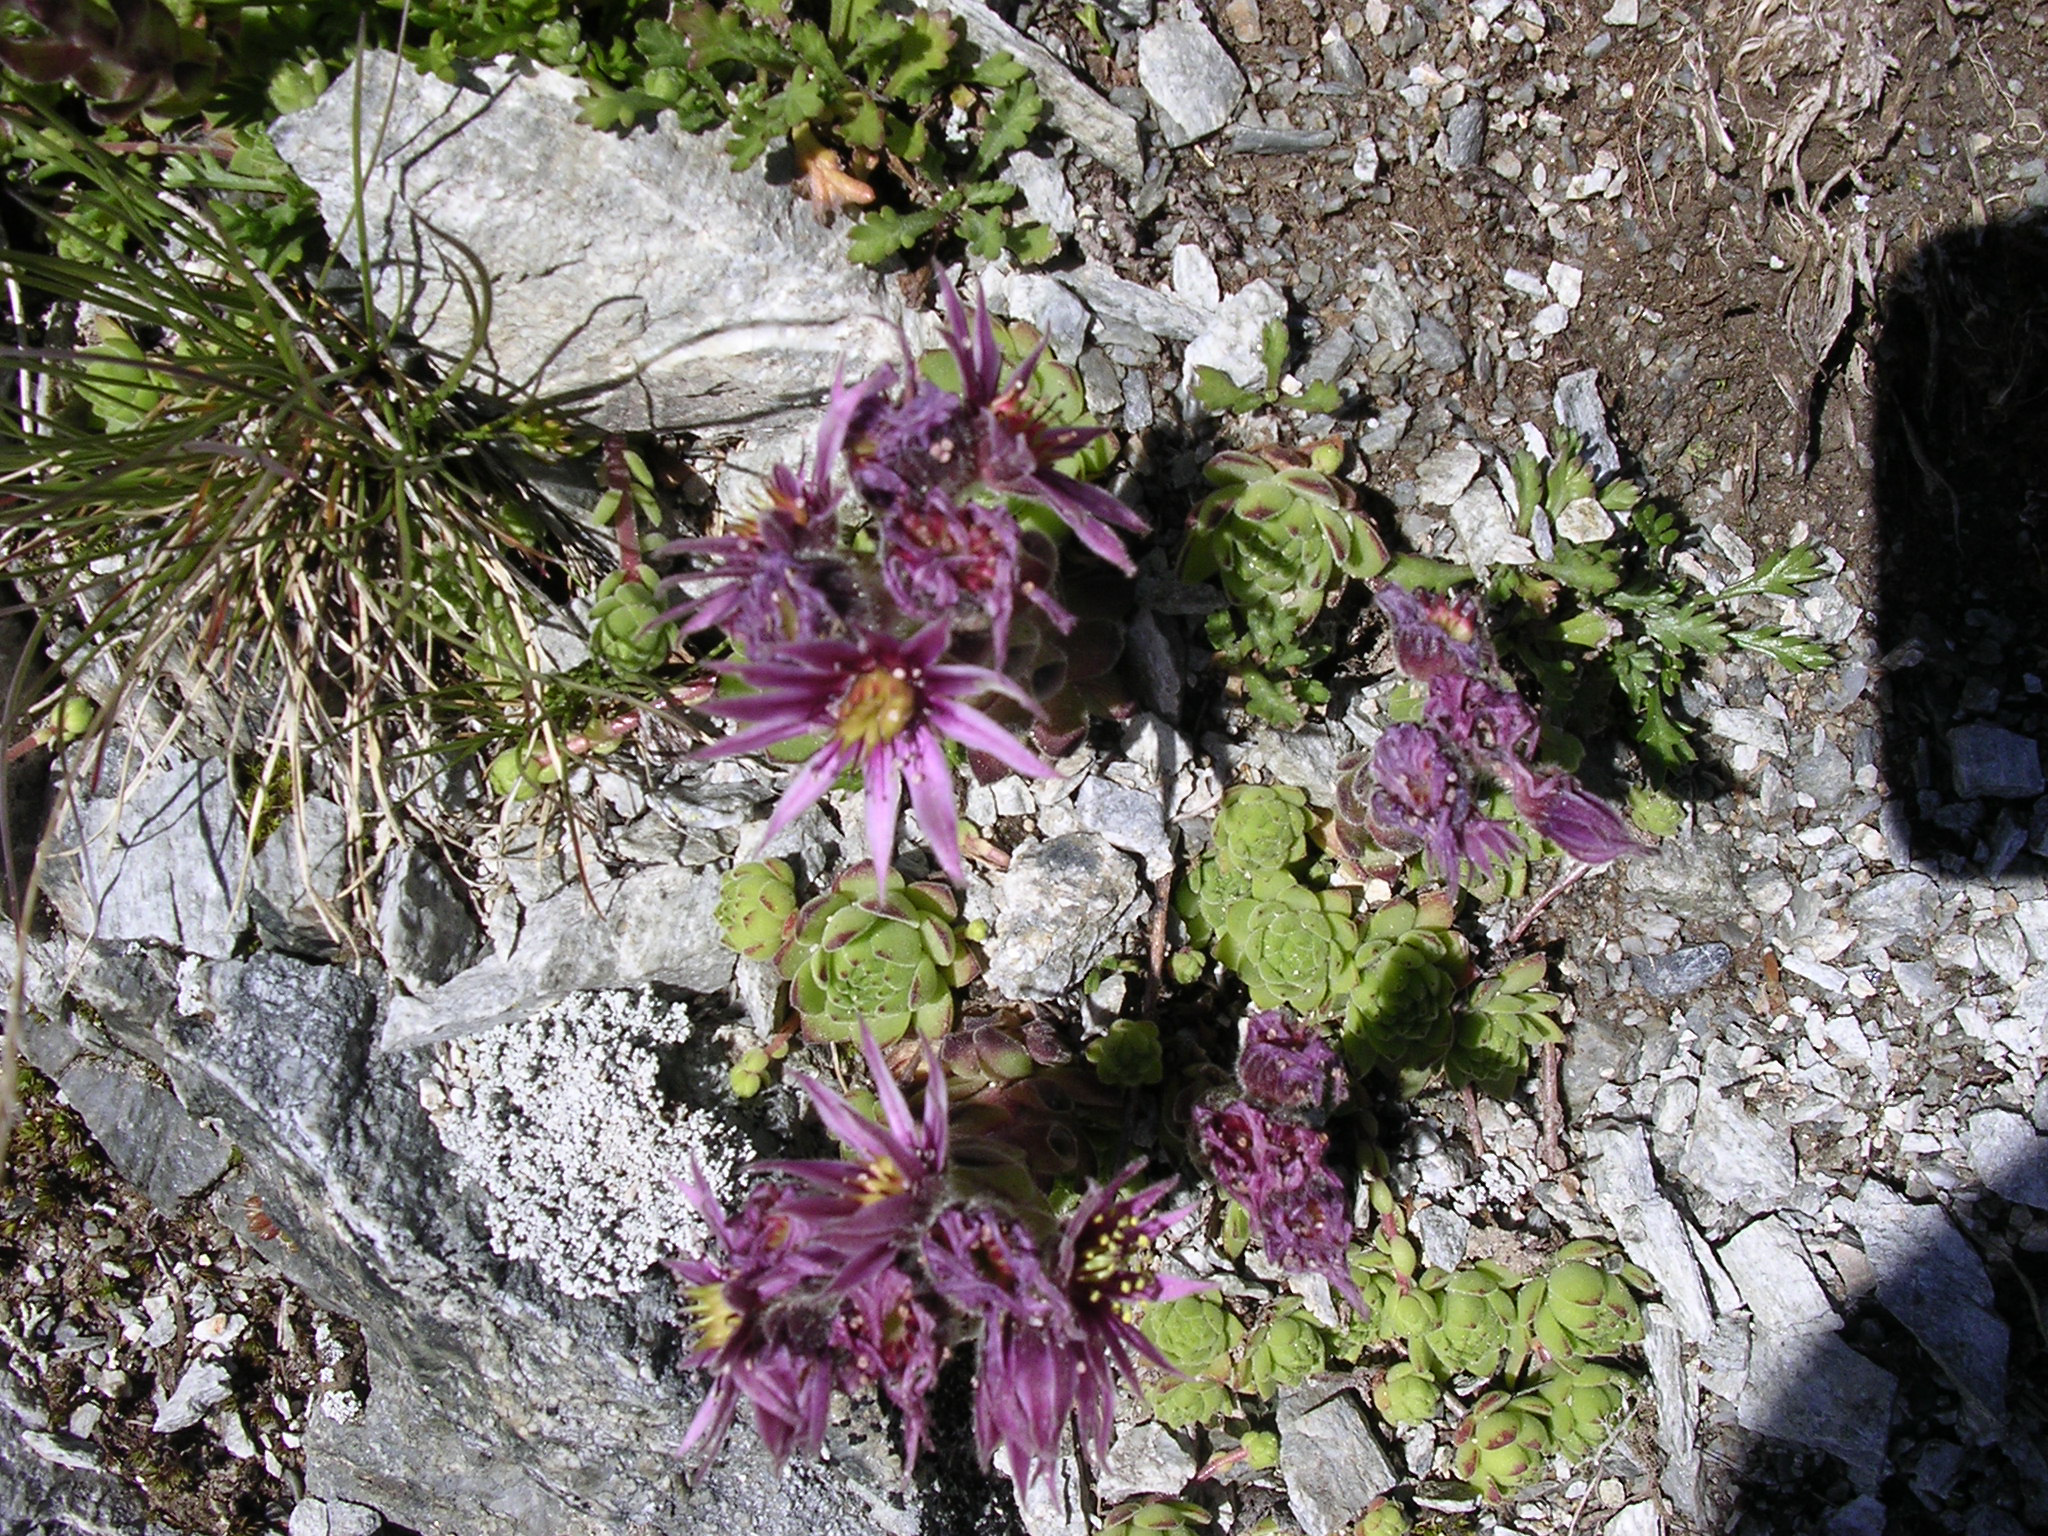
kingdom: Plantae
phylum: Tracheophyta
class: Magnoliopsida
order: Saxifragales
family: Crassulaceae
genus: Sempervivum
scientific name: Sempervivum montanum
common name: Mountain house-leek
